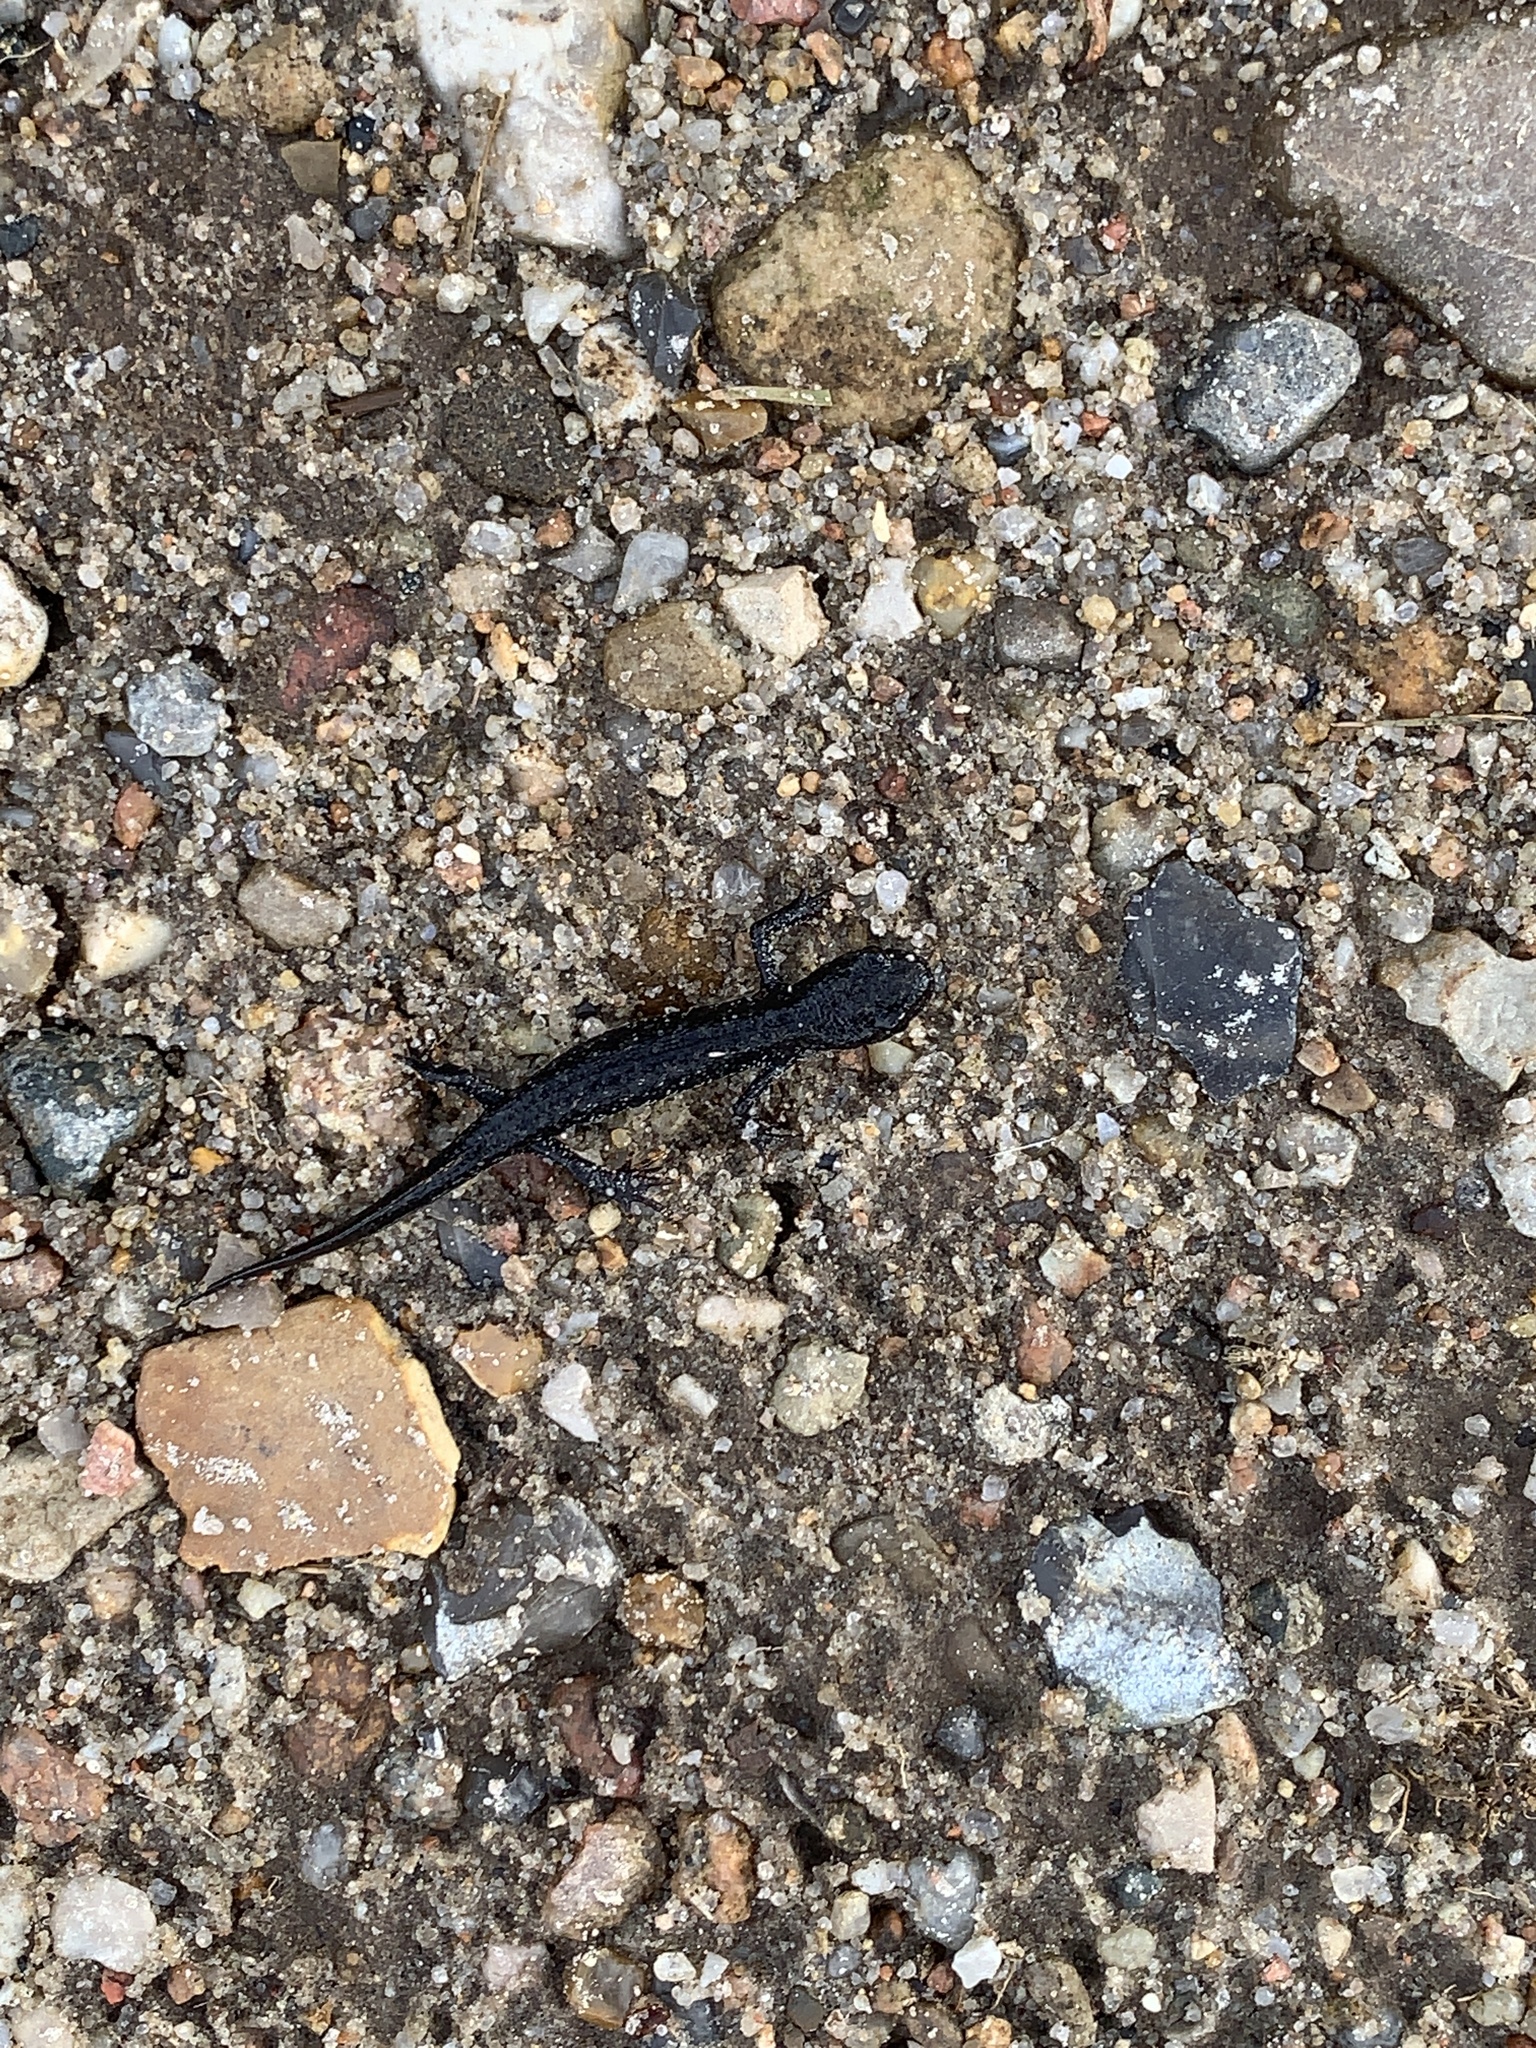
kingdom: Animalia
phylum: Chordata
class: Amphibia
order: Caudata
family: Salamandridae
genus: Triturus
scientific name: Triturus cristatus
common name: Crested newt
